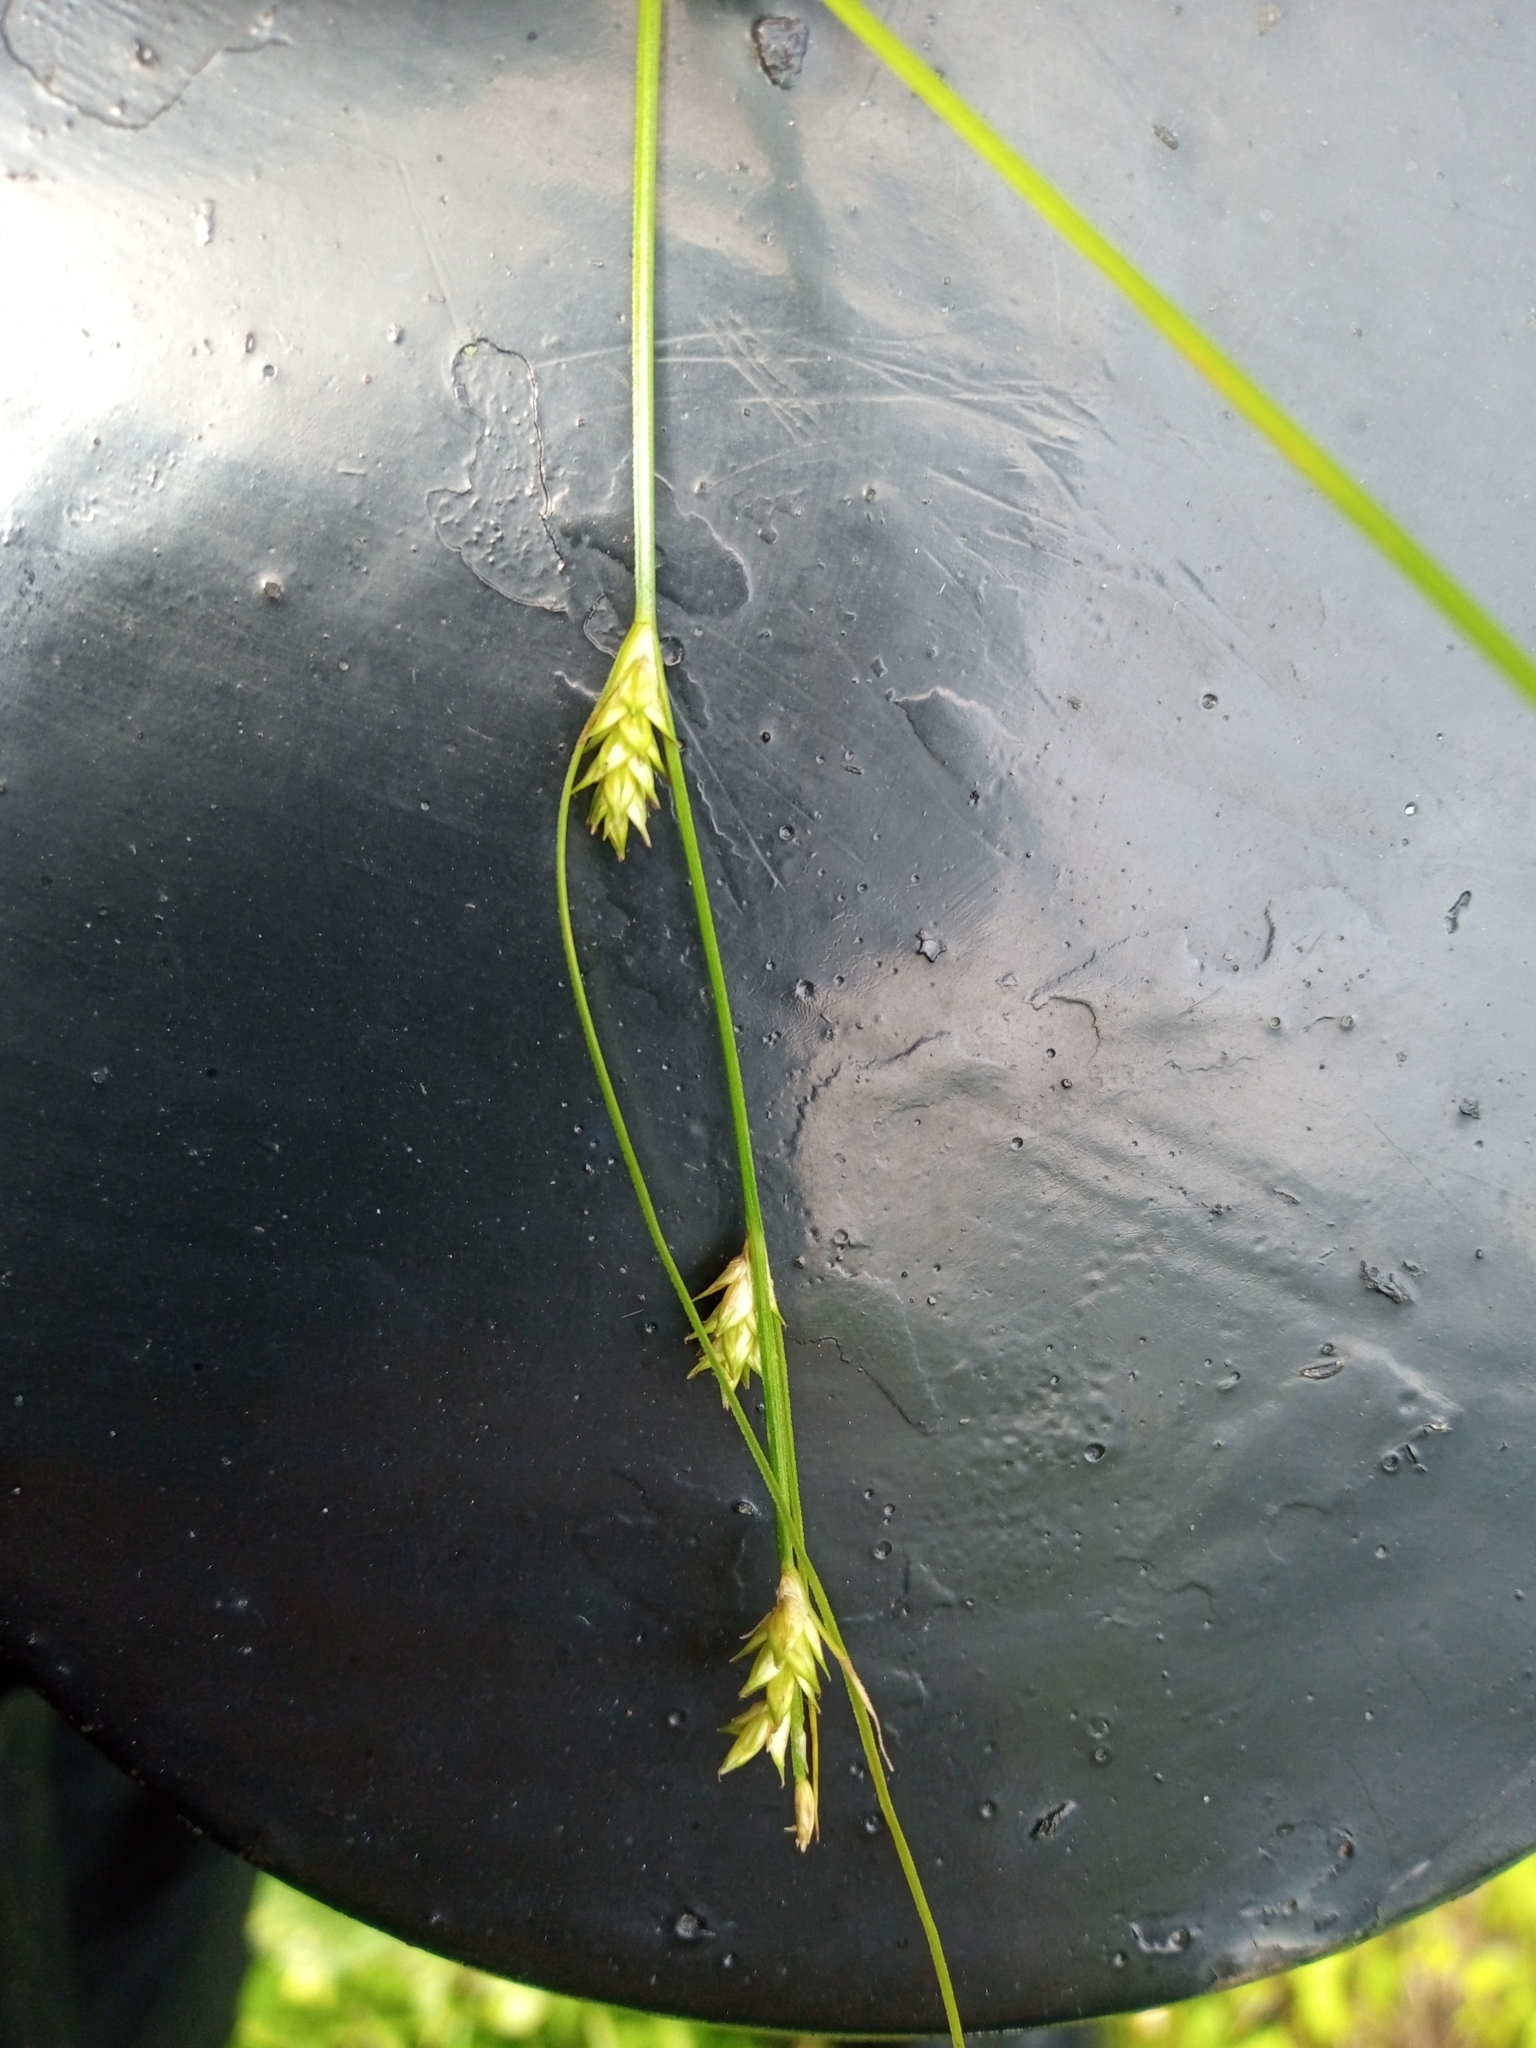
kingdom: Plantae
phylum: Tracheophyta
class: Liliopsida
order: Poales
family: Cyperaceae
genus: Carex
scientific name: Carex remota
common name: Remote sedge
